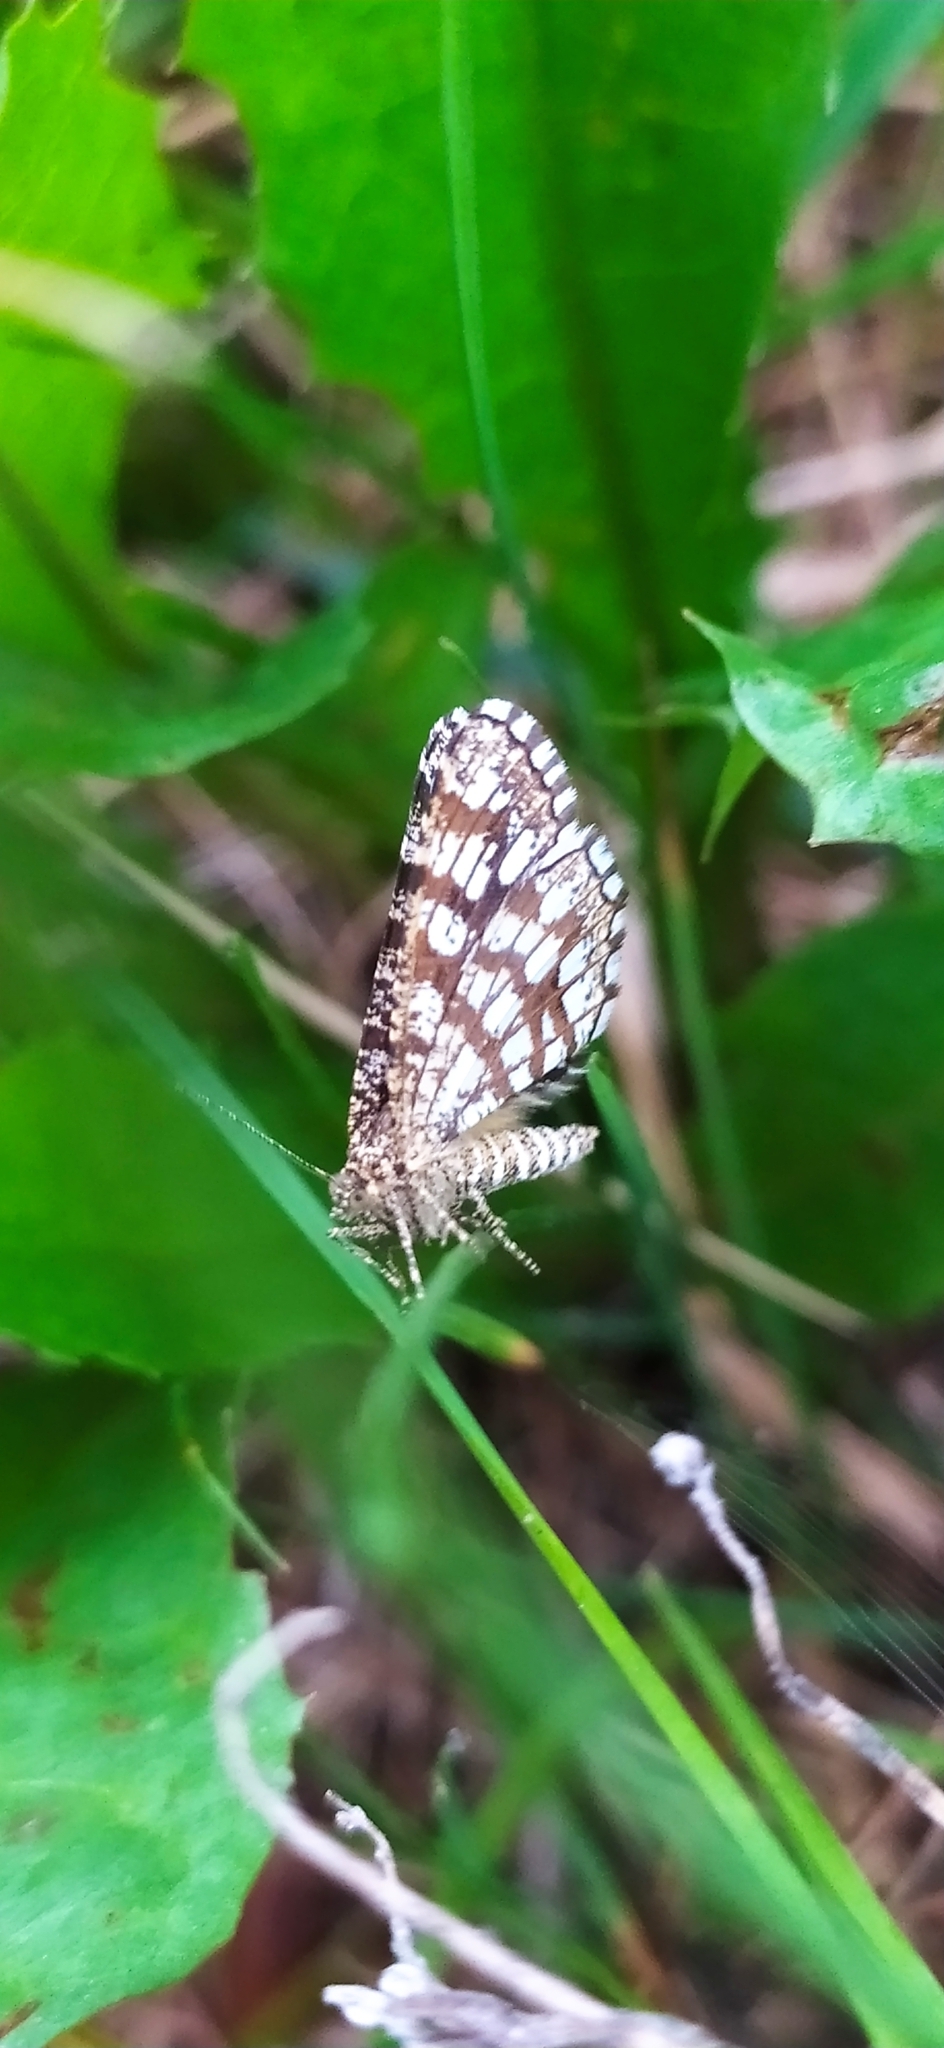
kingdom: Animalia
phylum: Arthropoda
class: Insecta
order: Lepidoptera
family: Geometridae
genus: Chiasmia
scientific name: Chiasmia clathrata
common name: Latticed heath
